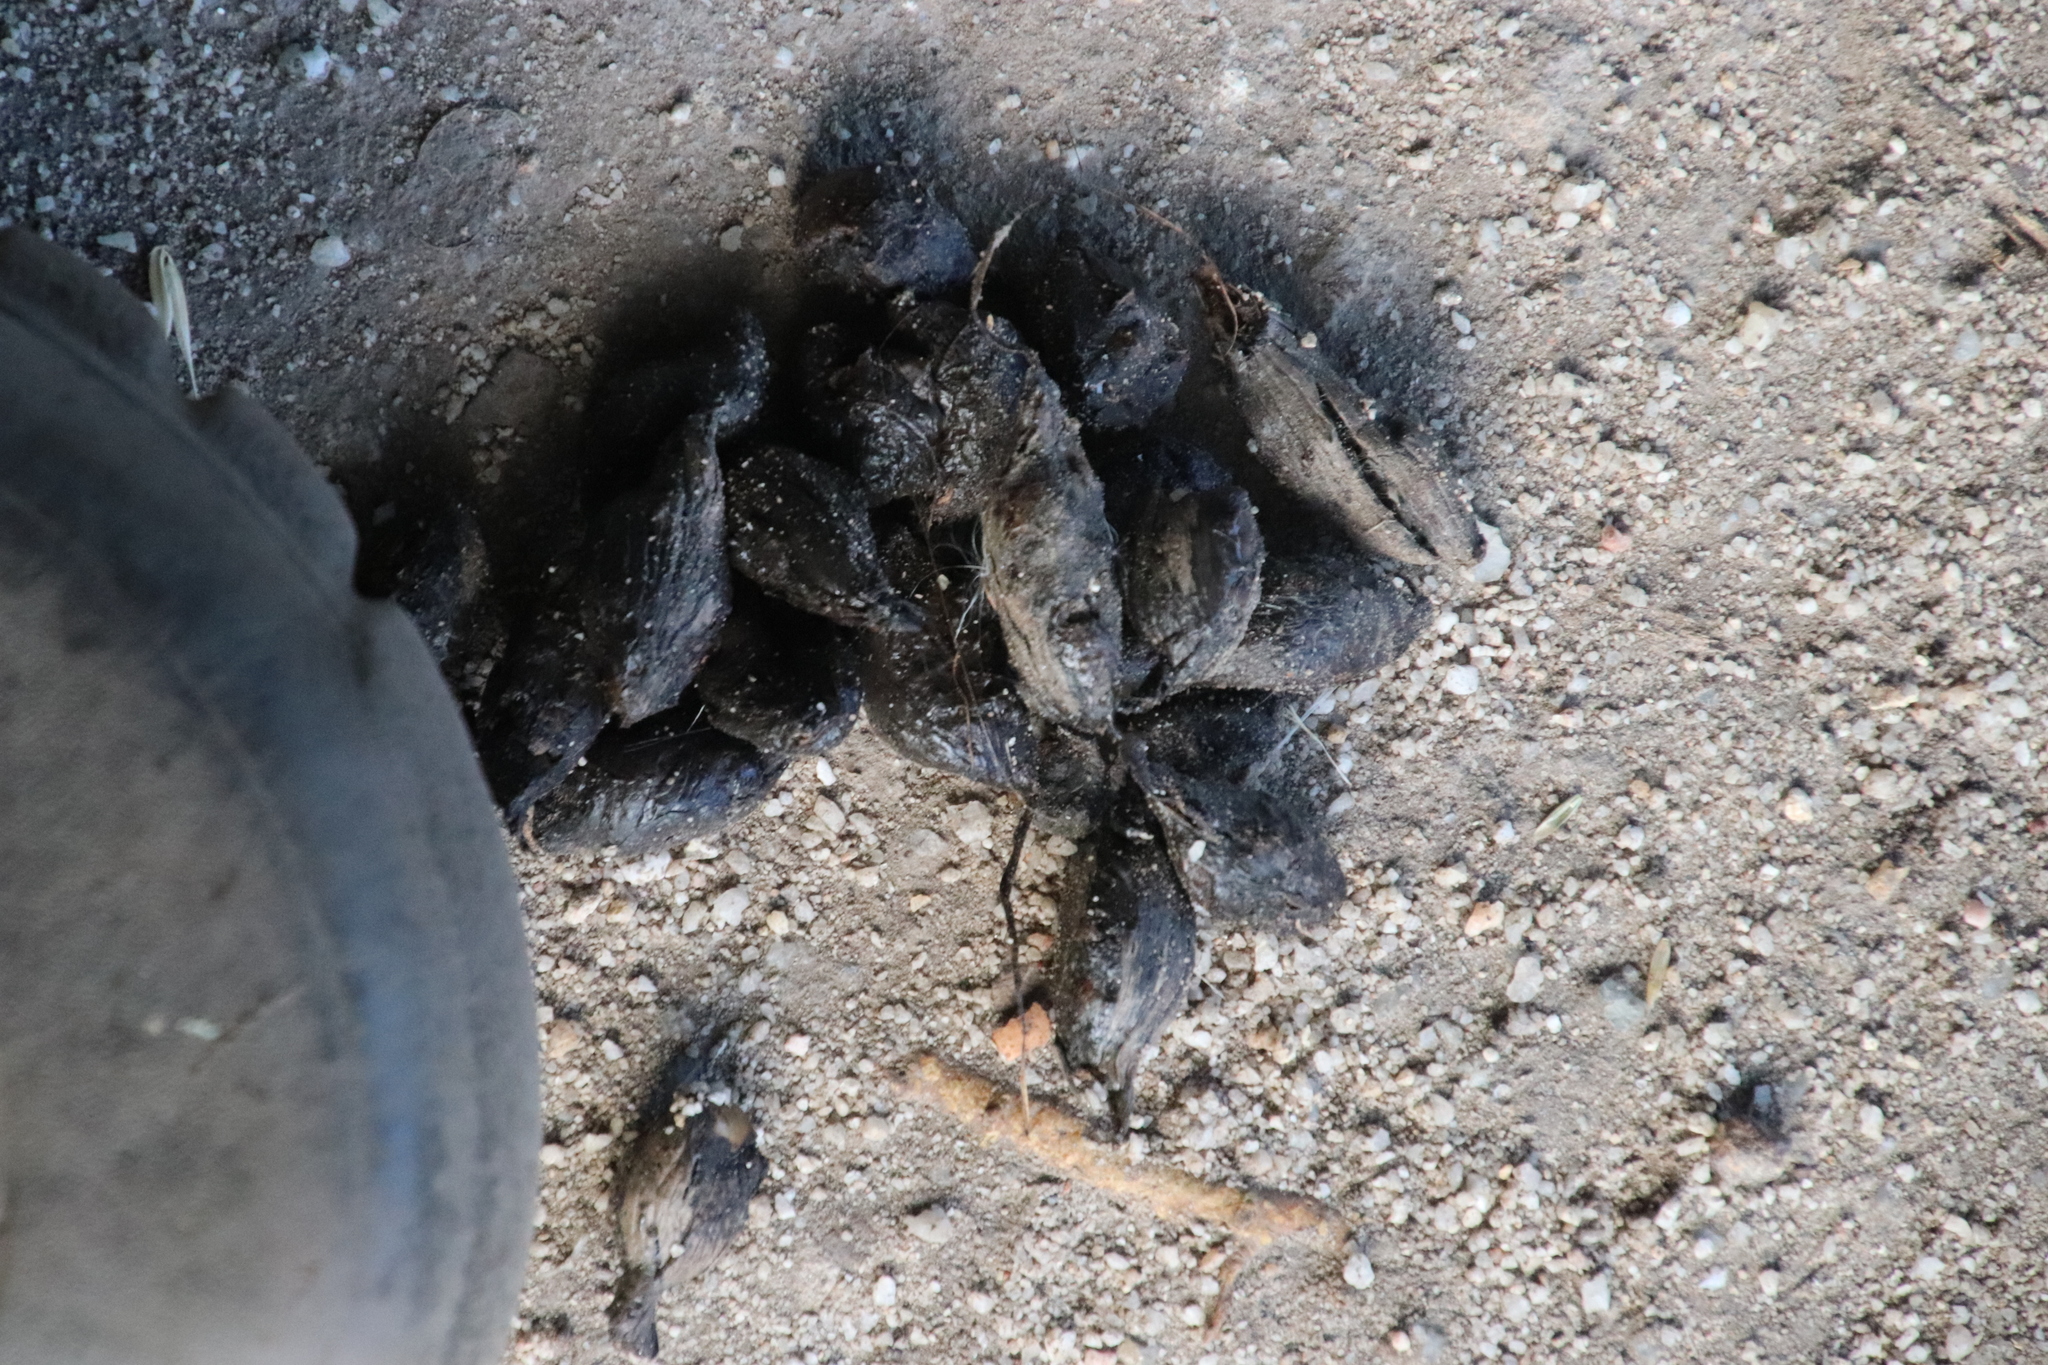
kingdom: Animalia
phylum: Chordata
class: Mammalia
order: Rodentia
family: Hystricidae
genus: Hystrix
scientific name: Hystrix africaeaustralis
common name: Cape porcupine
